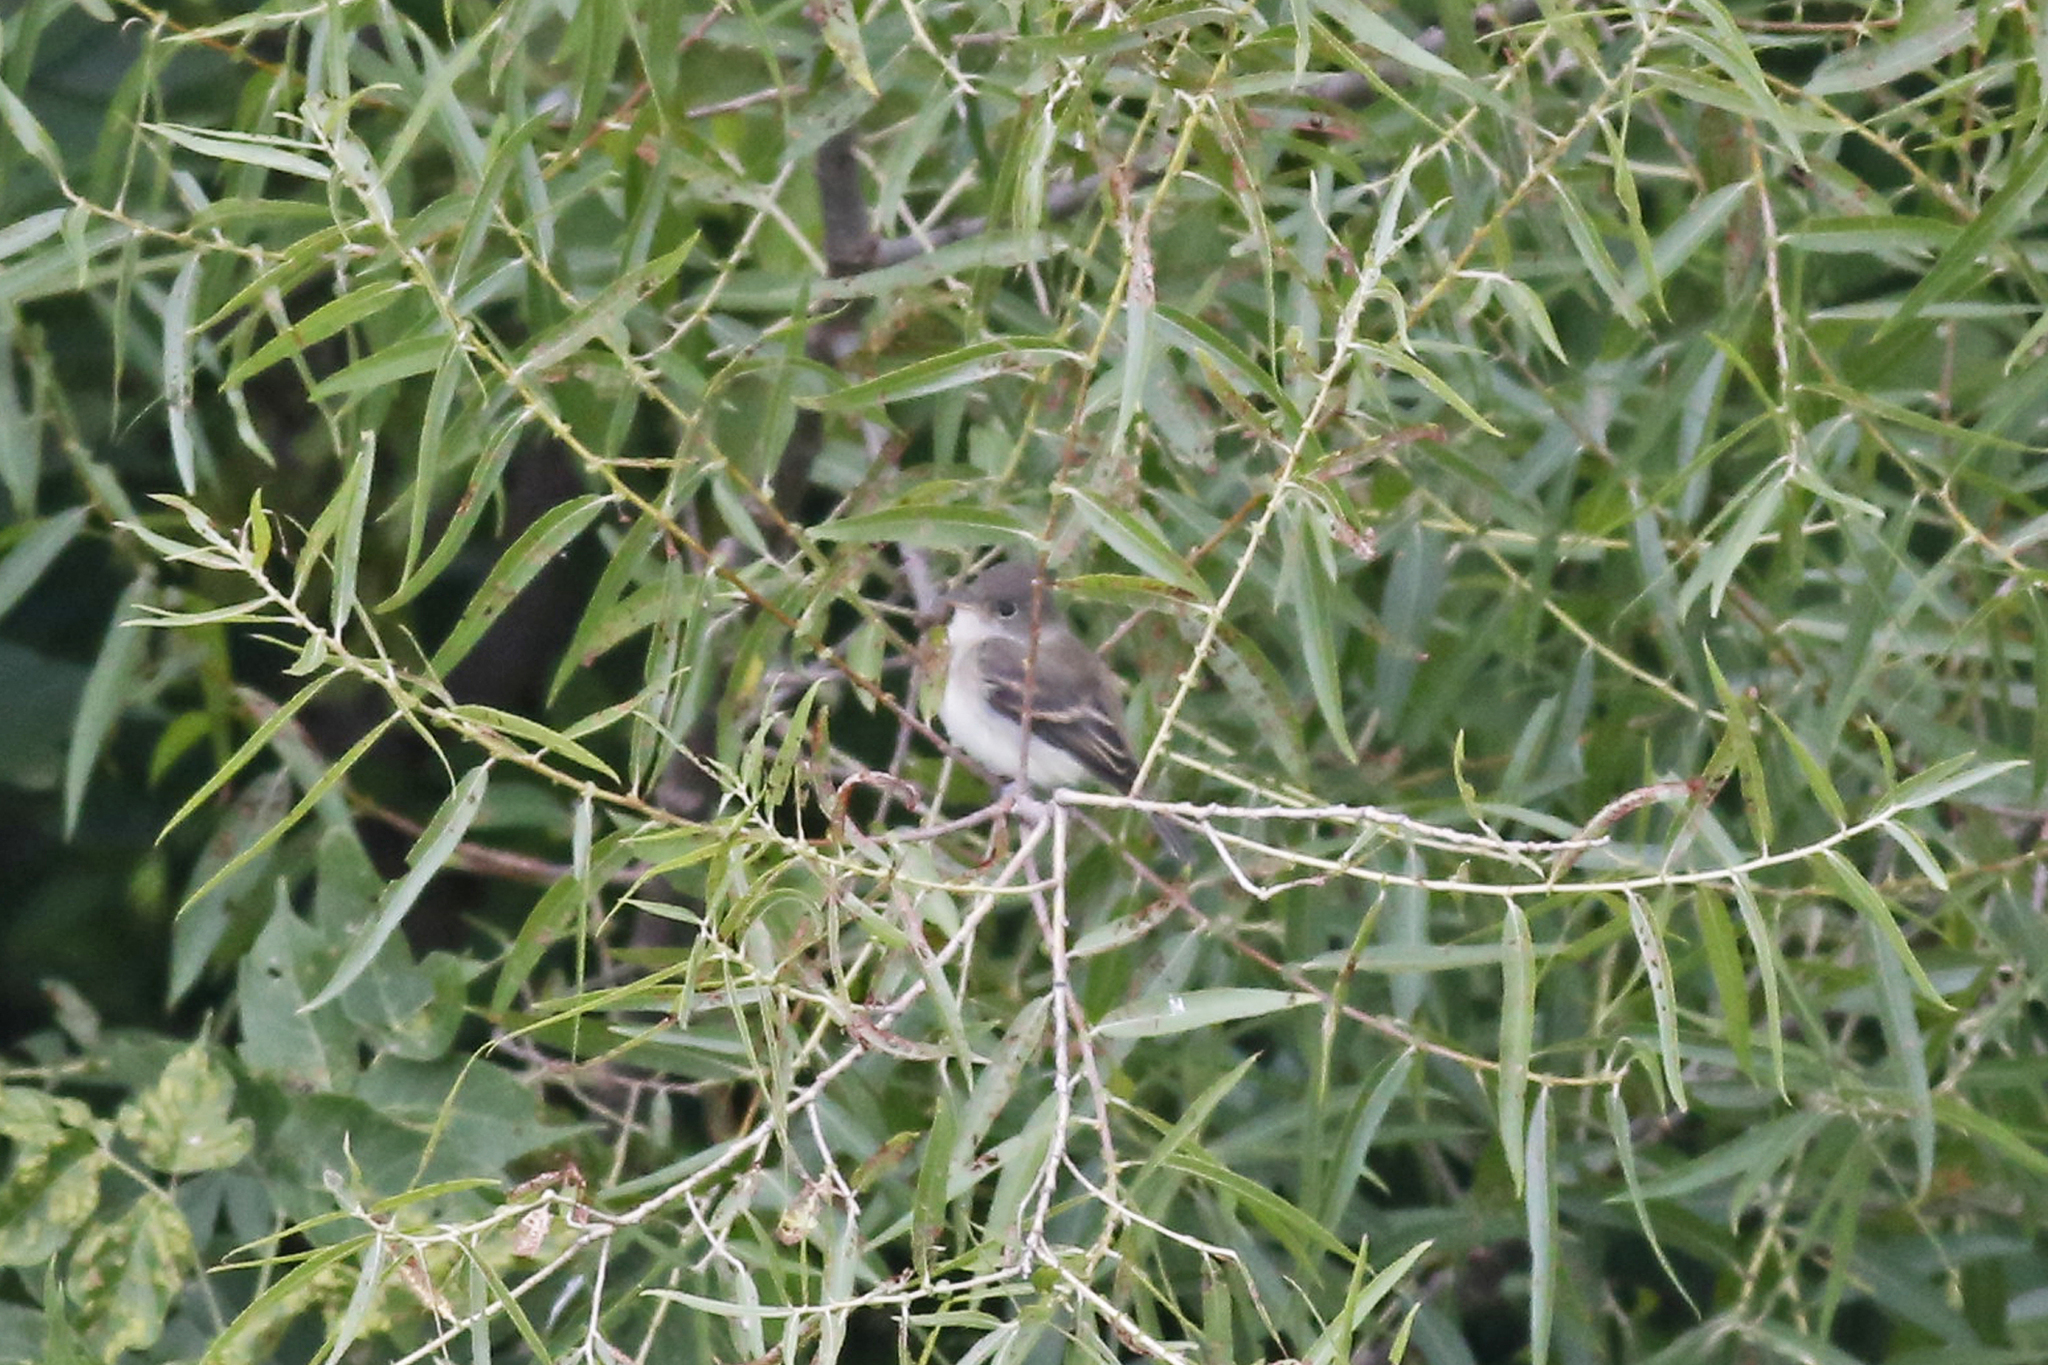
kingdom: Animalia
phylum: Chordata
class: Aves
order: Passeriformes
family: Tyrannidae
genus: Empidonax
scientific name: Empidonax traillii
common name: Willow flycatcher
